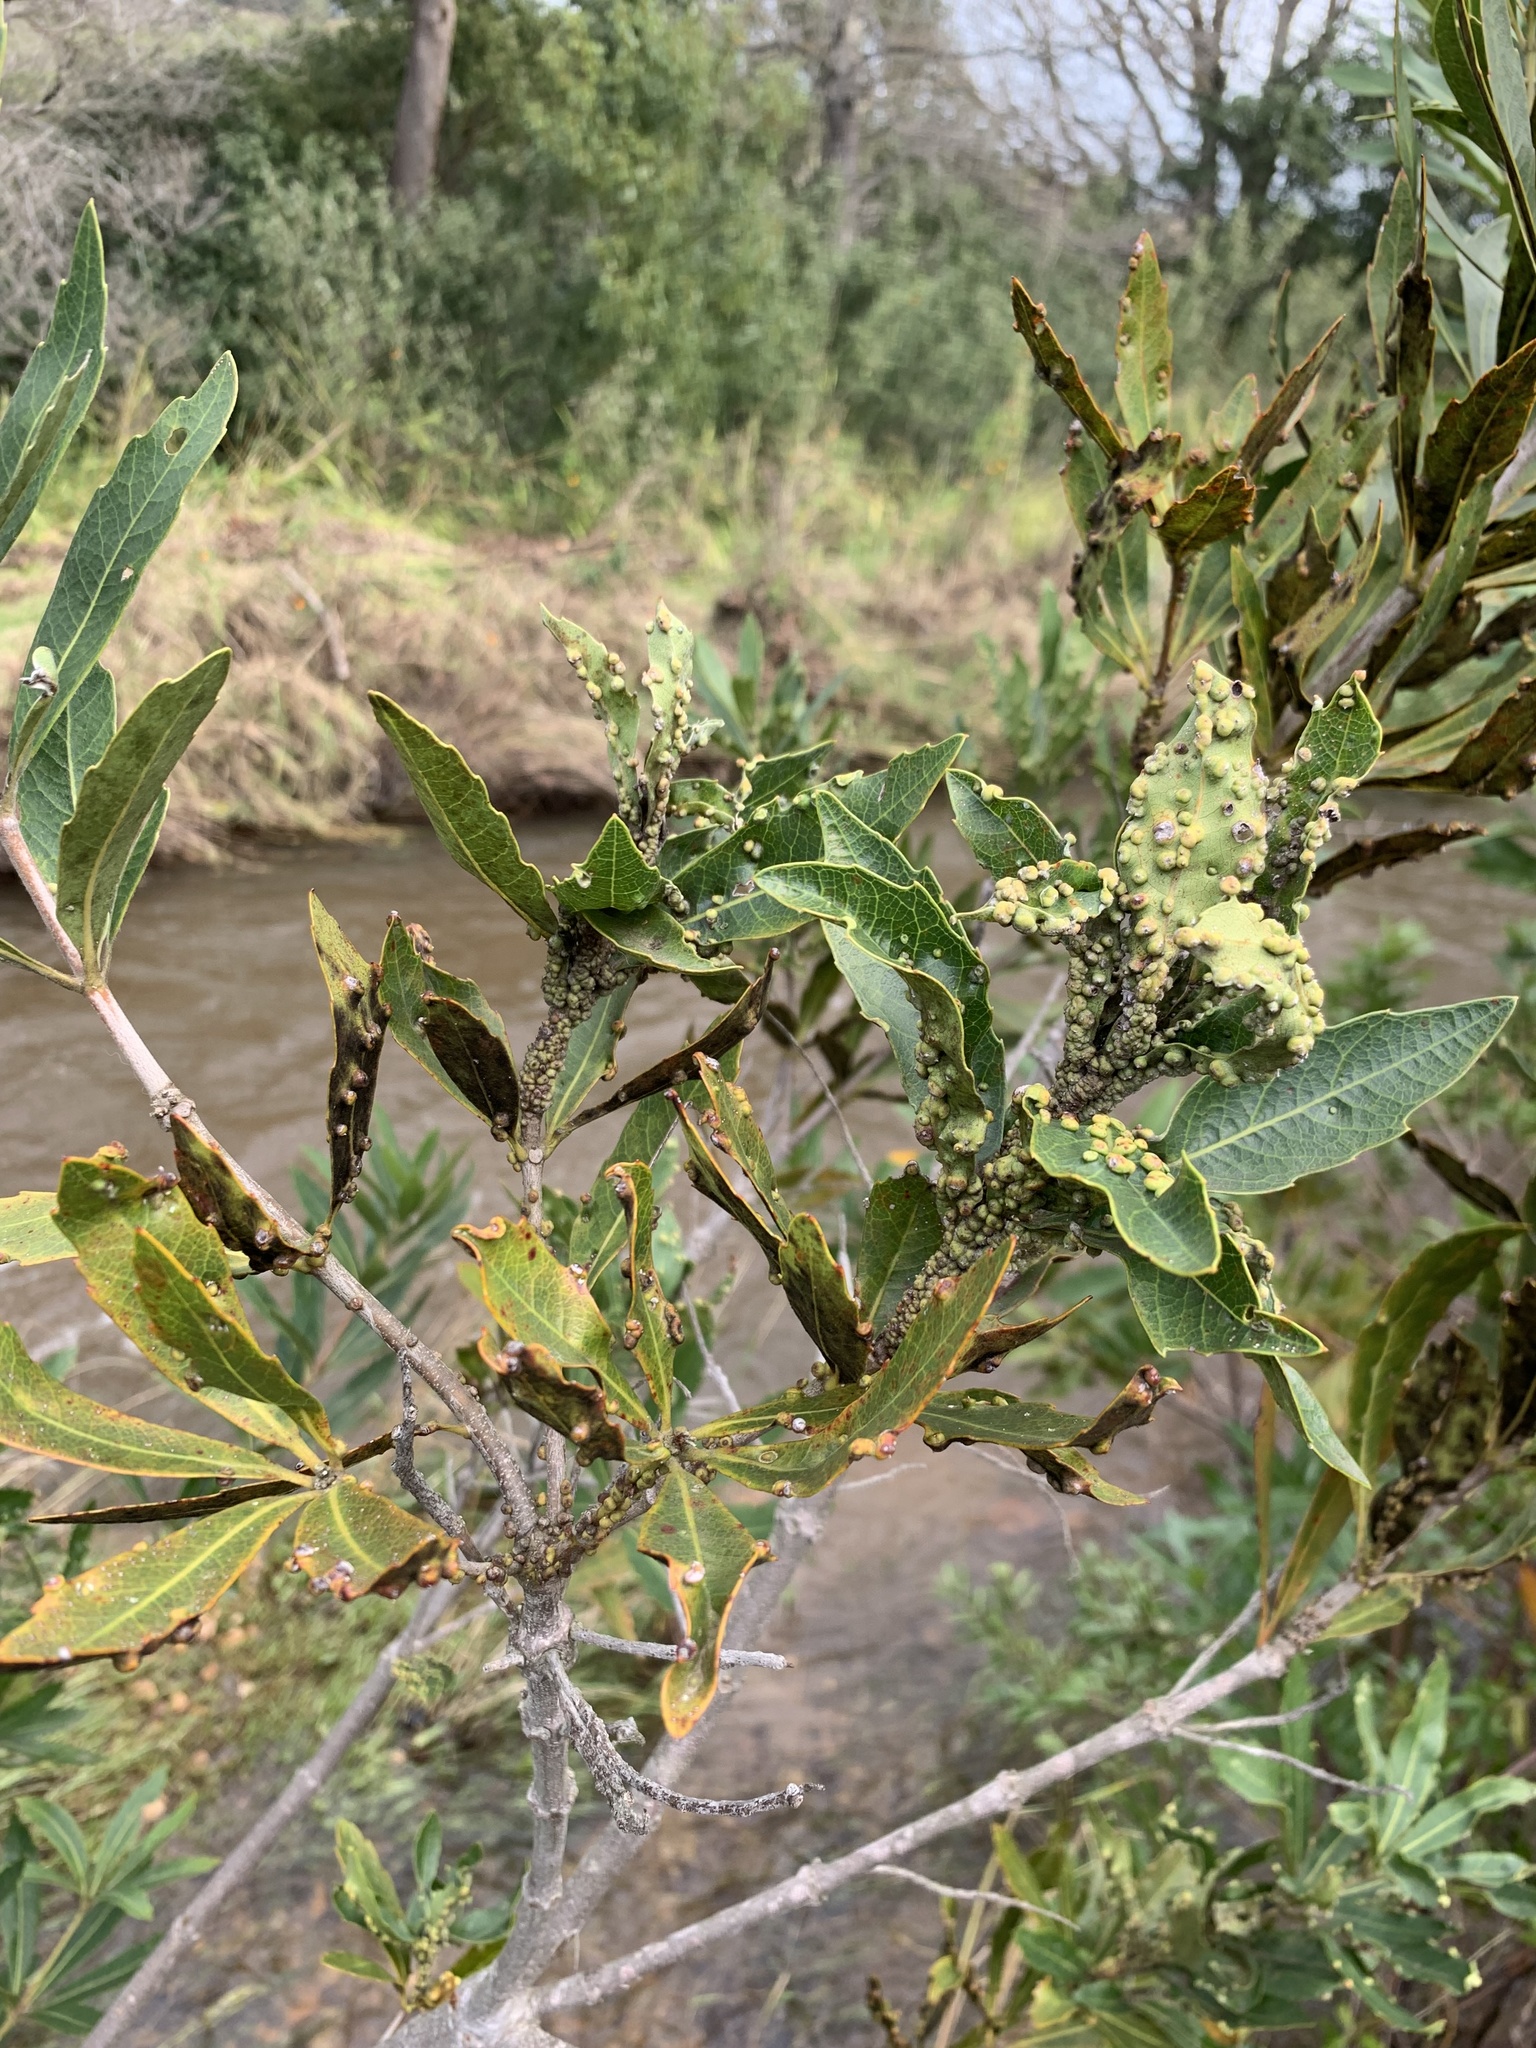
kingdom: Plantae
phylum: Tracheophyta
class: Magnoliopsida
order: Proteales
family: Proteaceae
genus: Brabejum
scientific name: Brabejum stellatifolium
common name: Wild almond
